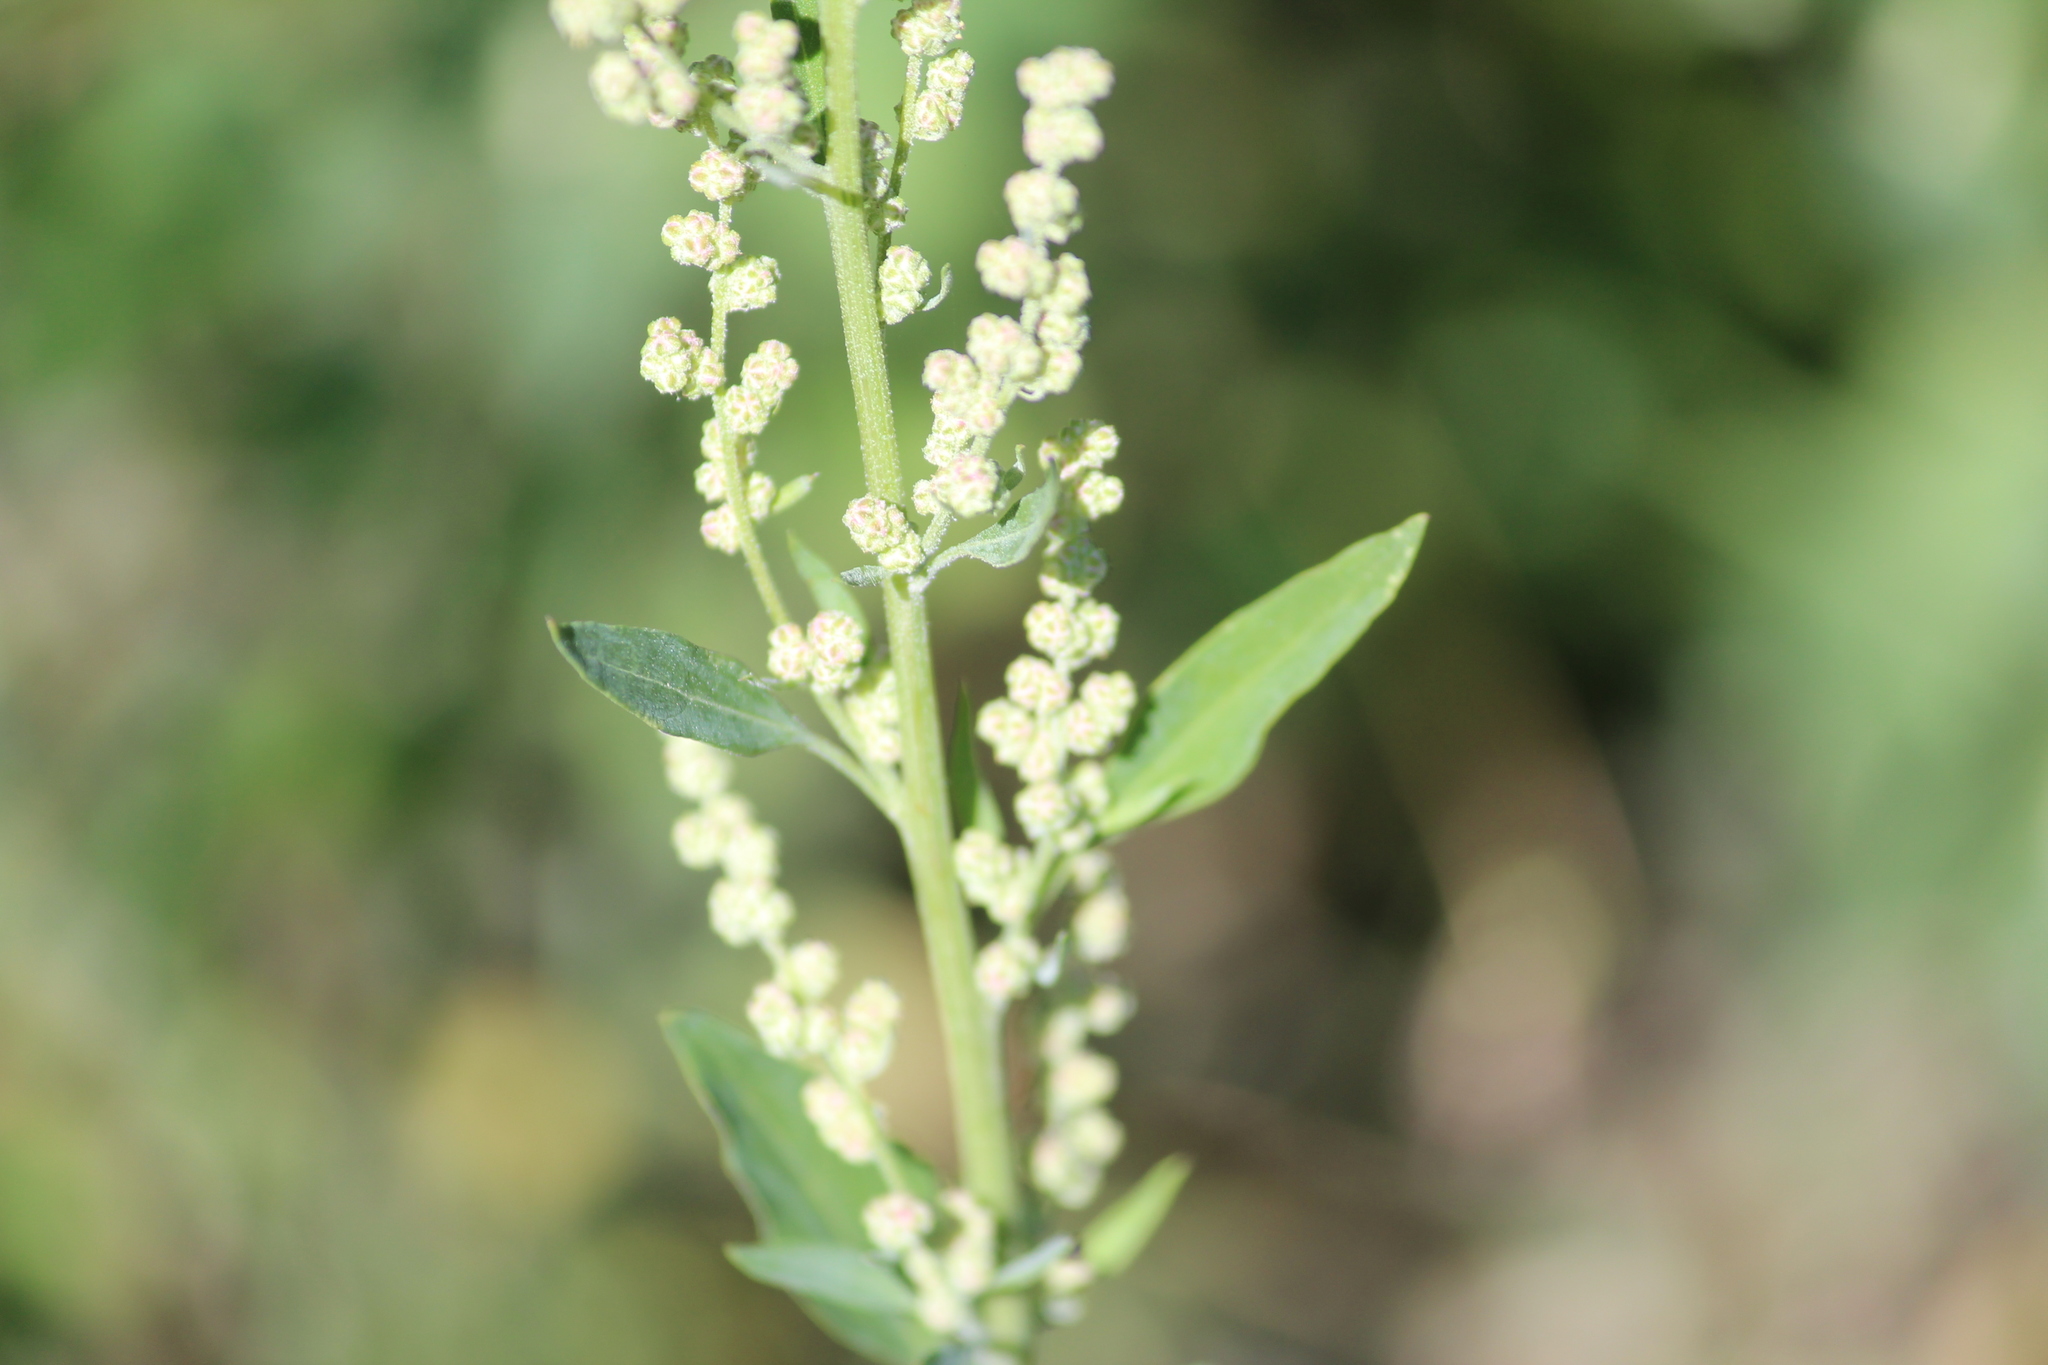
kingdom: Plantae
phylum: Tracheophyta
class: Magnoliopsida
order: Caryophyllales
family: Amaranthaceae
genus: Chenopodium
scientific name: Chenopodium album
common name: Fat-hen
